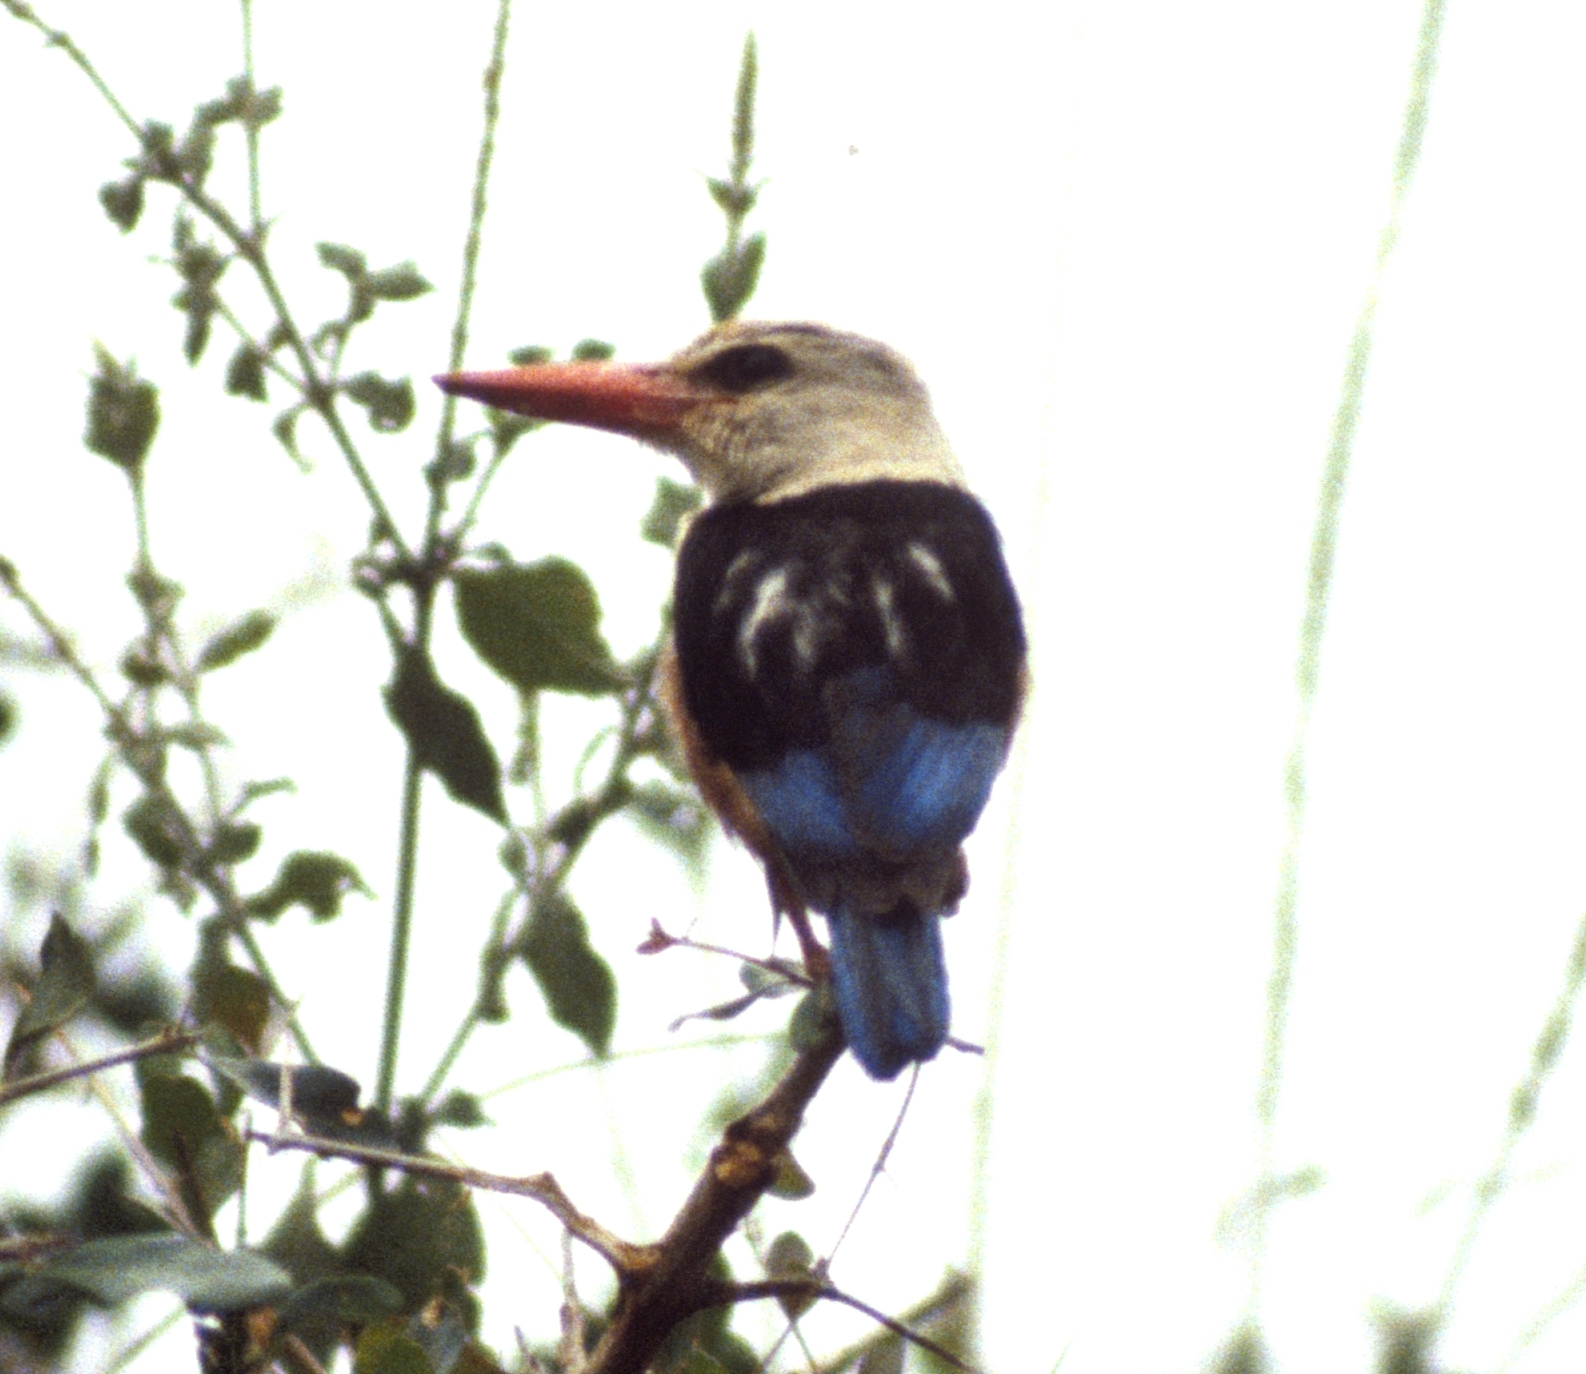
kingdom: Animalia
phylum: Chordata
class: Aves
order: Coraciiformes
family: Alcedinidae
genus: Halcyon
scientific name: Halcyon leucocephala
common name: Grey-headed kingfisher
